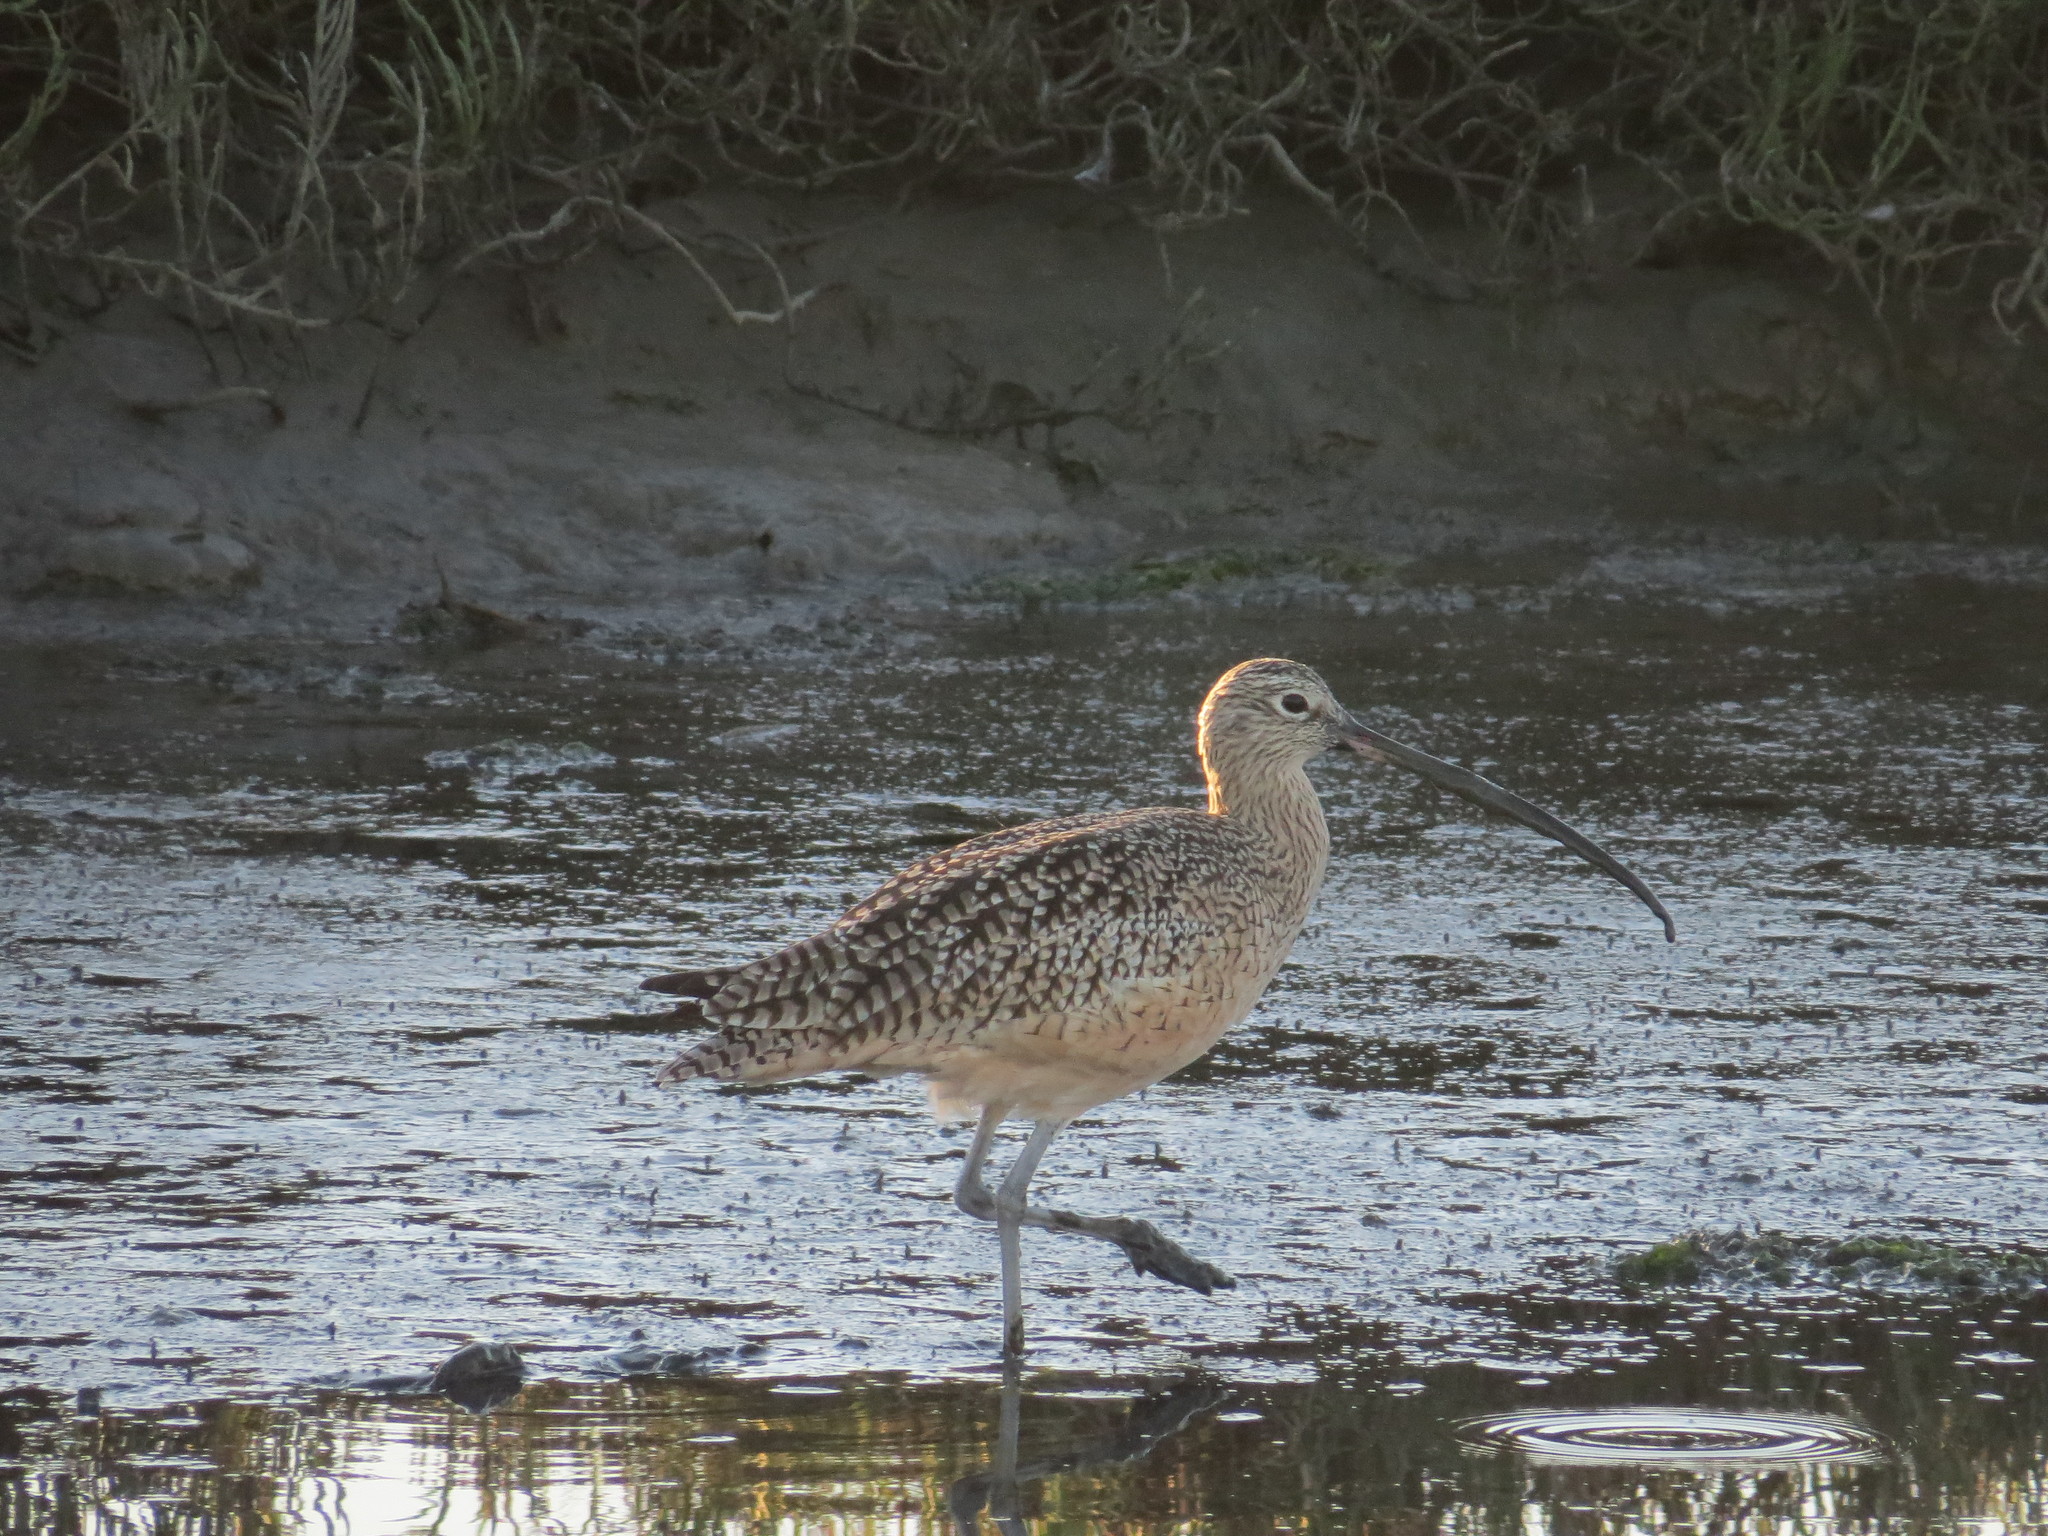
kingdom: Animalia
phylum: Chordata
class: Aves
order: Charadriiformes
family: Scolopacidae
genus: Numenius
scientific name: Numenius americanus
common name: Long-billed curlew
